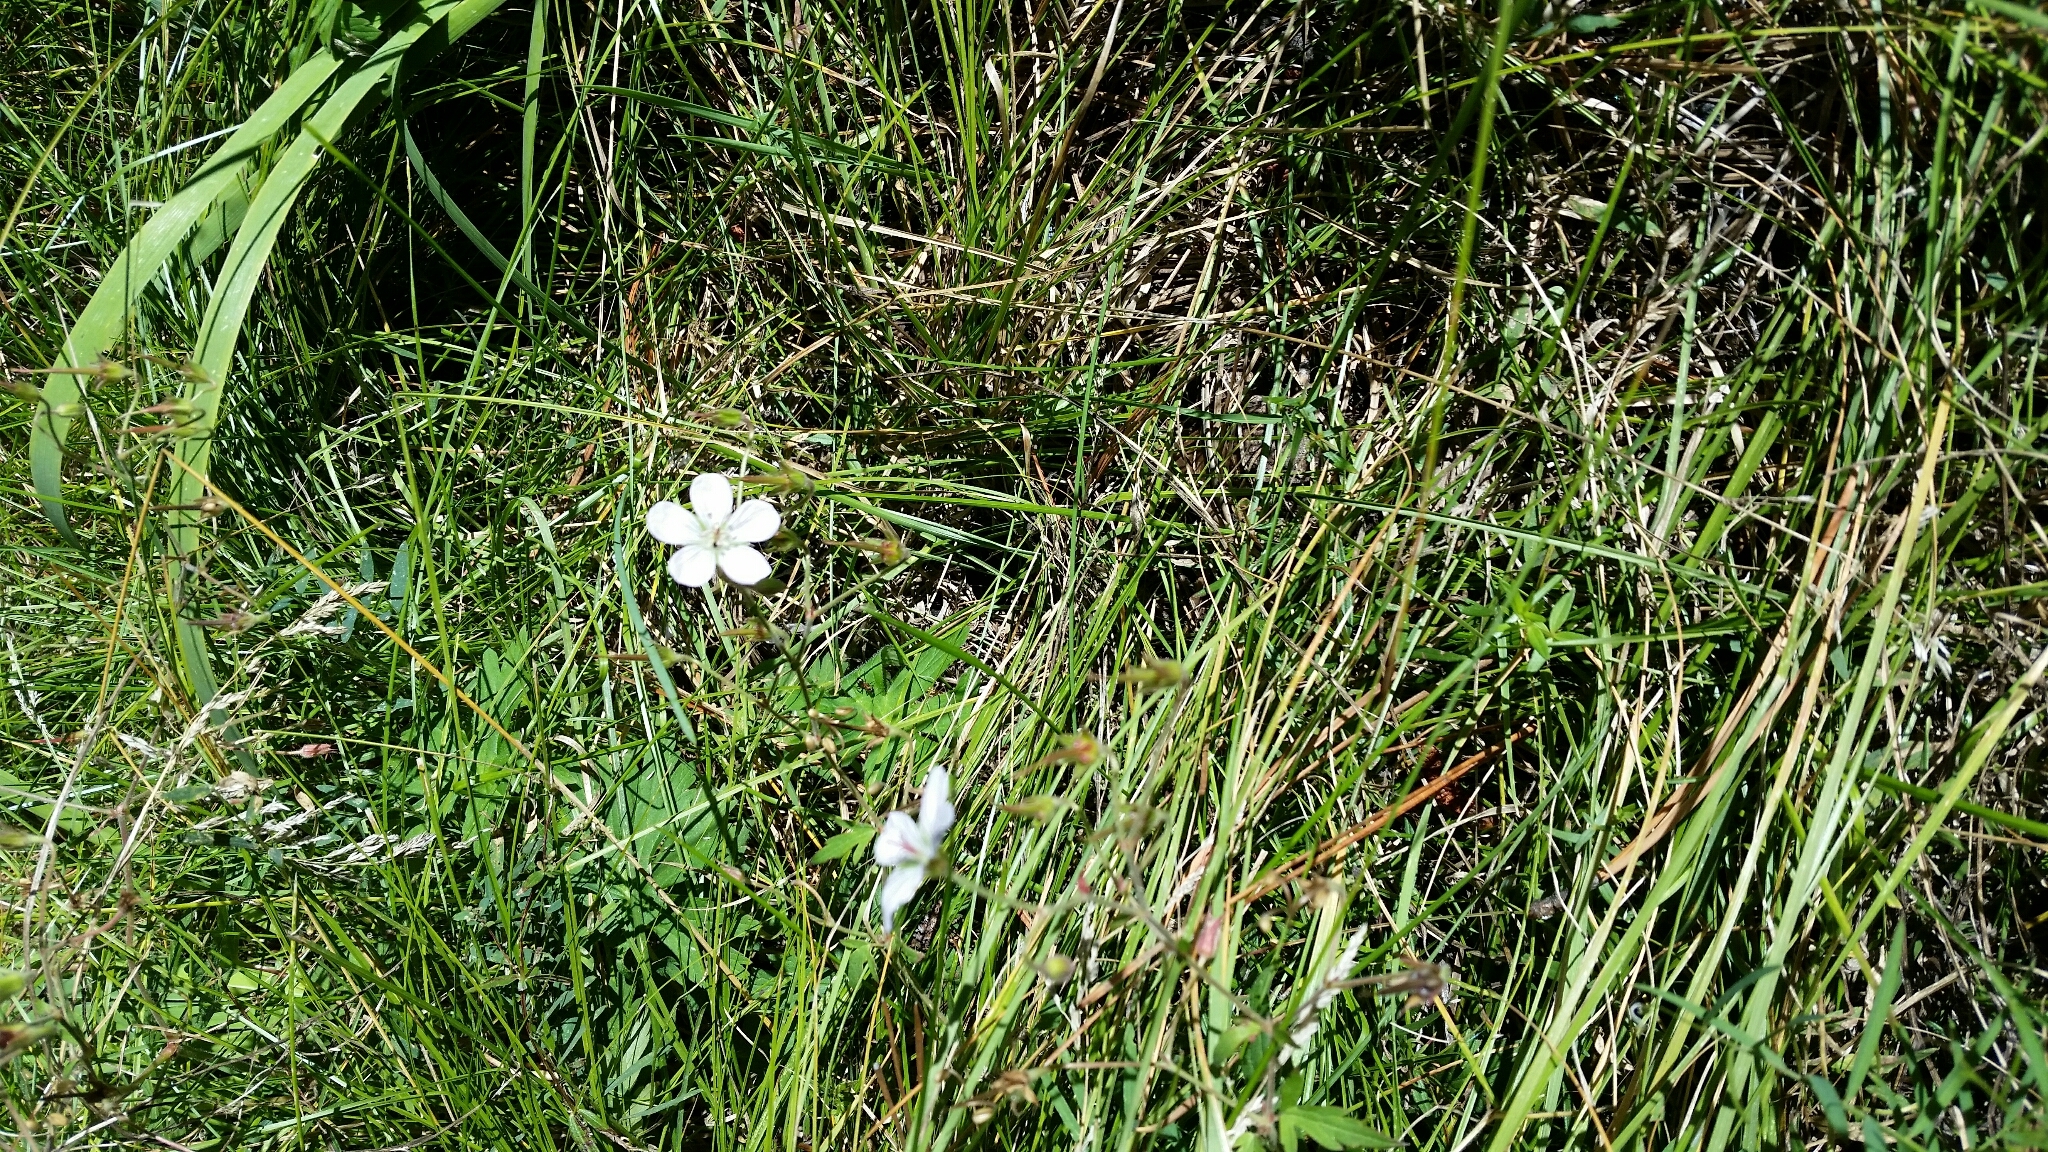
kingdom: Plantae
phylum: Tracheophyta
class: Magnoliopsida
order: Geraniales
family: Geraniaceae
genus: Geranium
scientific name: Geranium richardsonii
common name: Richardson's crane's-bill
